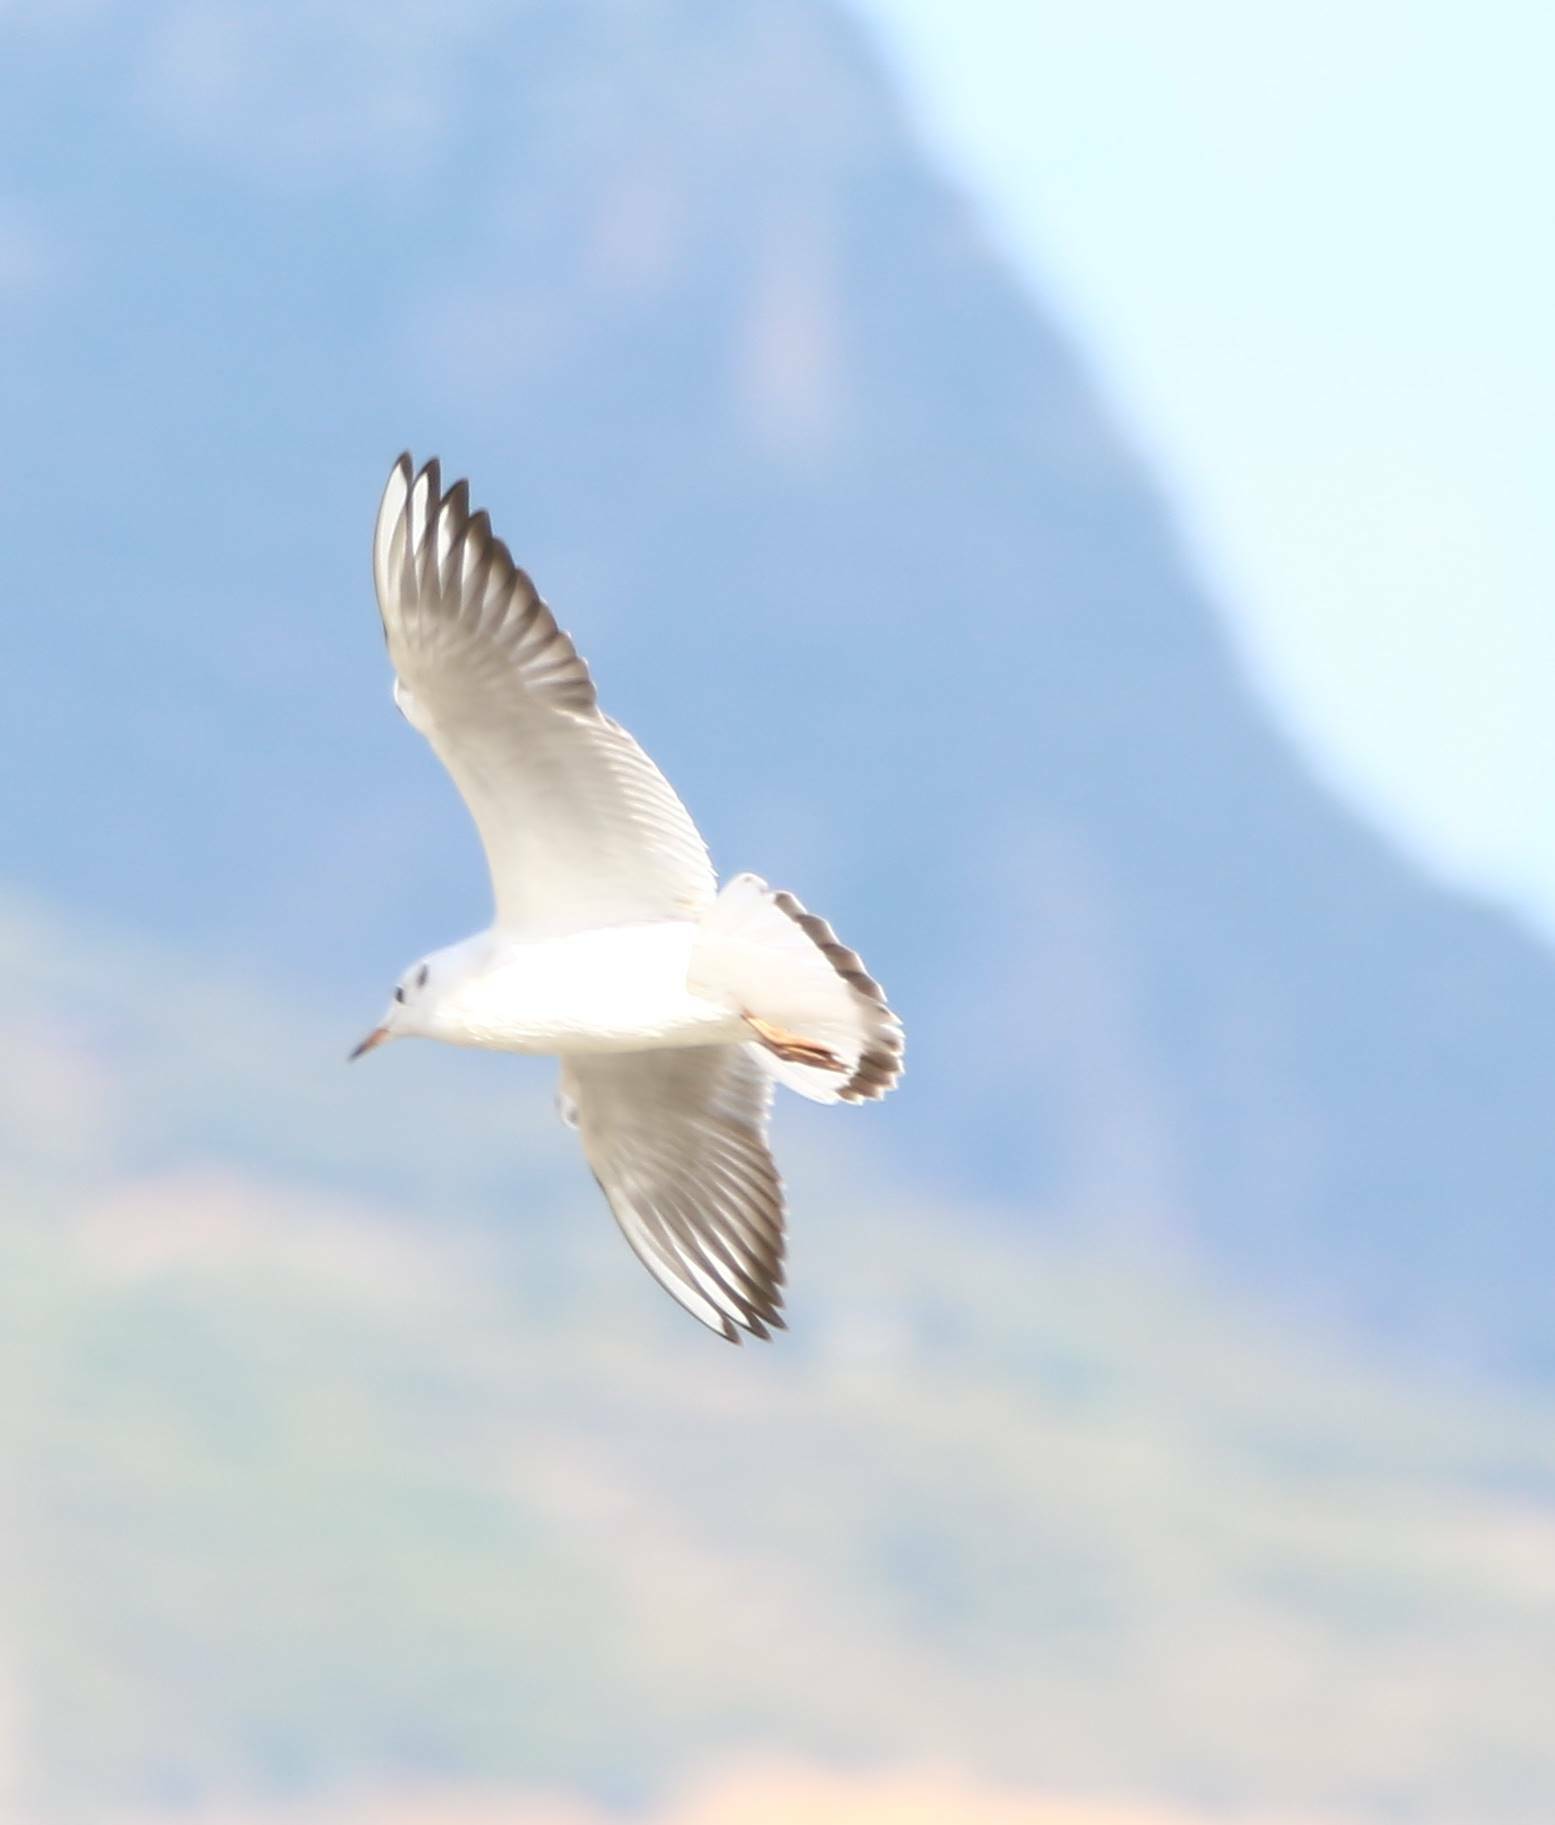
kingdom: Animalia
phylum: Chordata
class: Aves
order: Charadriiformes
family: Laridae
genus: Chroicocephalus
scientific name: Chroicocephalus ridibundus
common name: Black-headed gull
